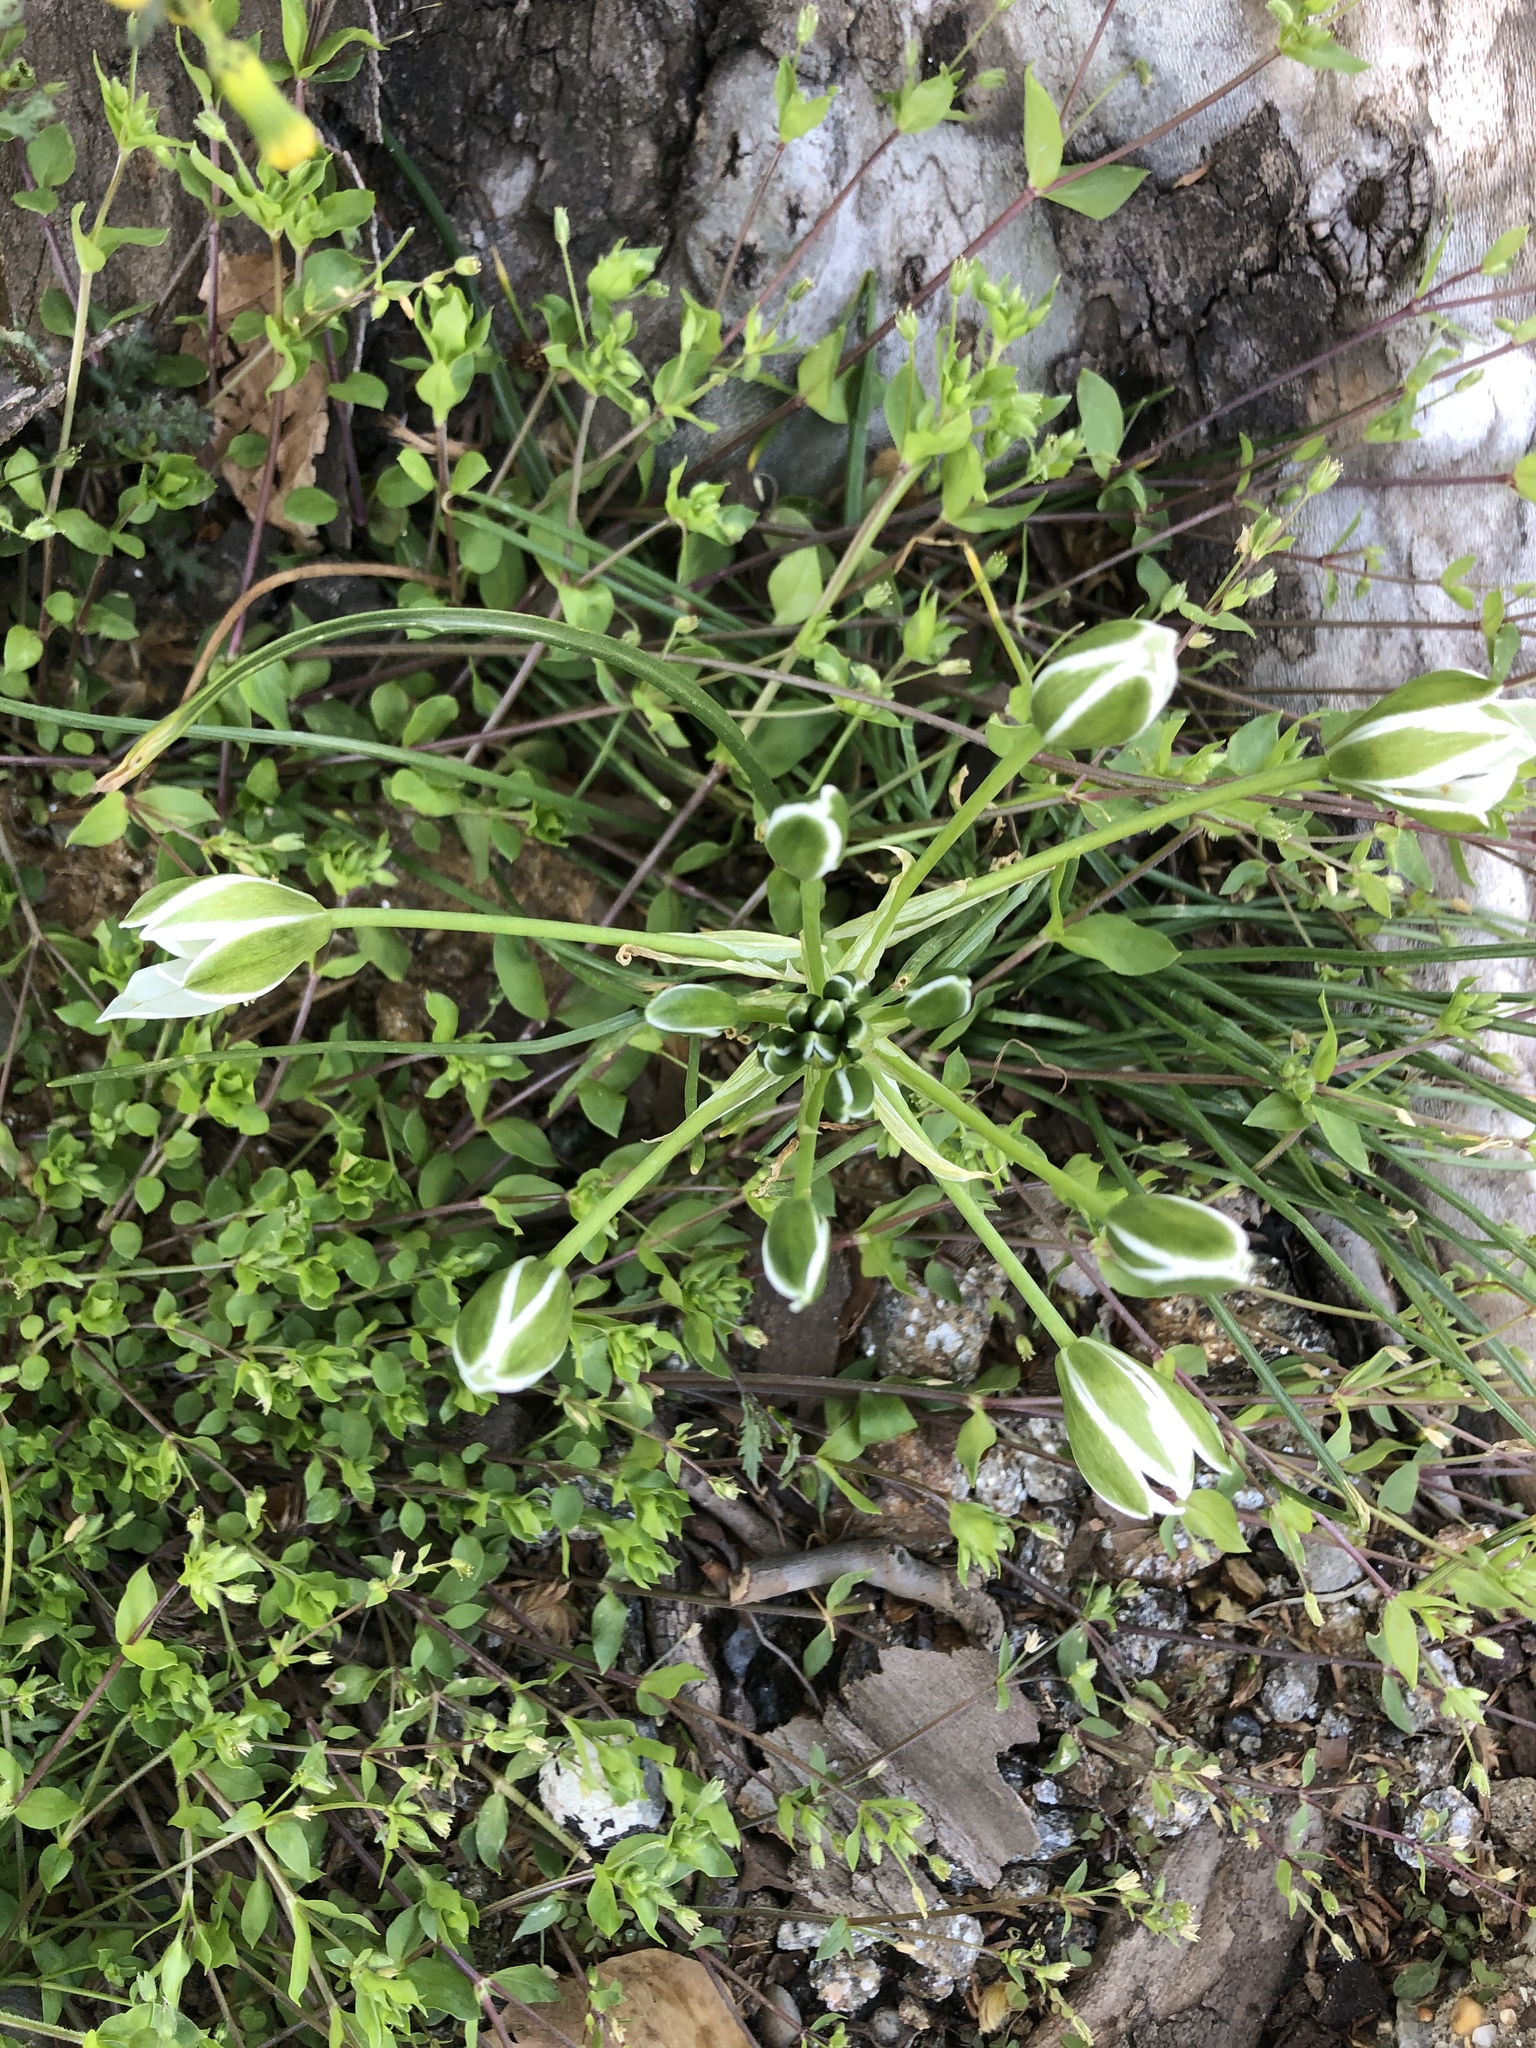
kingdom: Plantae
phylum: Tracheophyta
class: Liliopsida
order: Asparagales
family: Asparagaceae
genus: Ornithogalum
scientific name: Ornithogalum umbellatum
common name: Garden star-of-bethlehem
